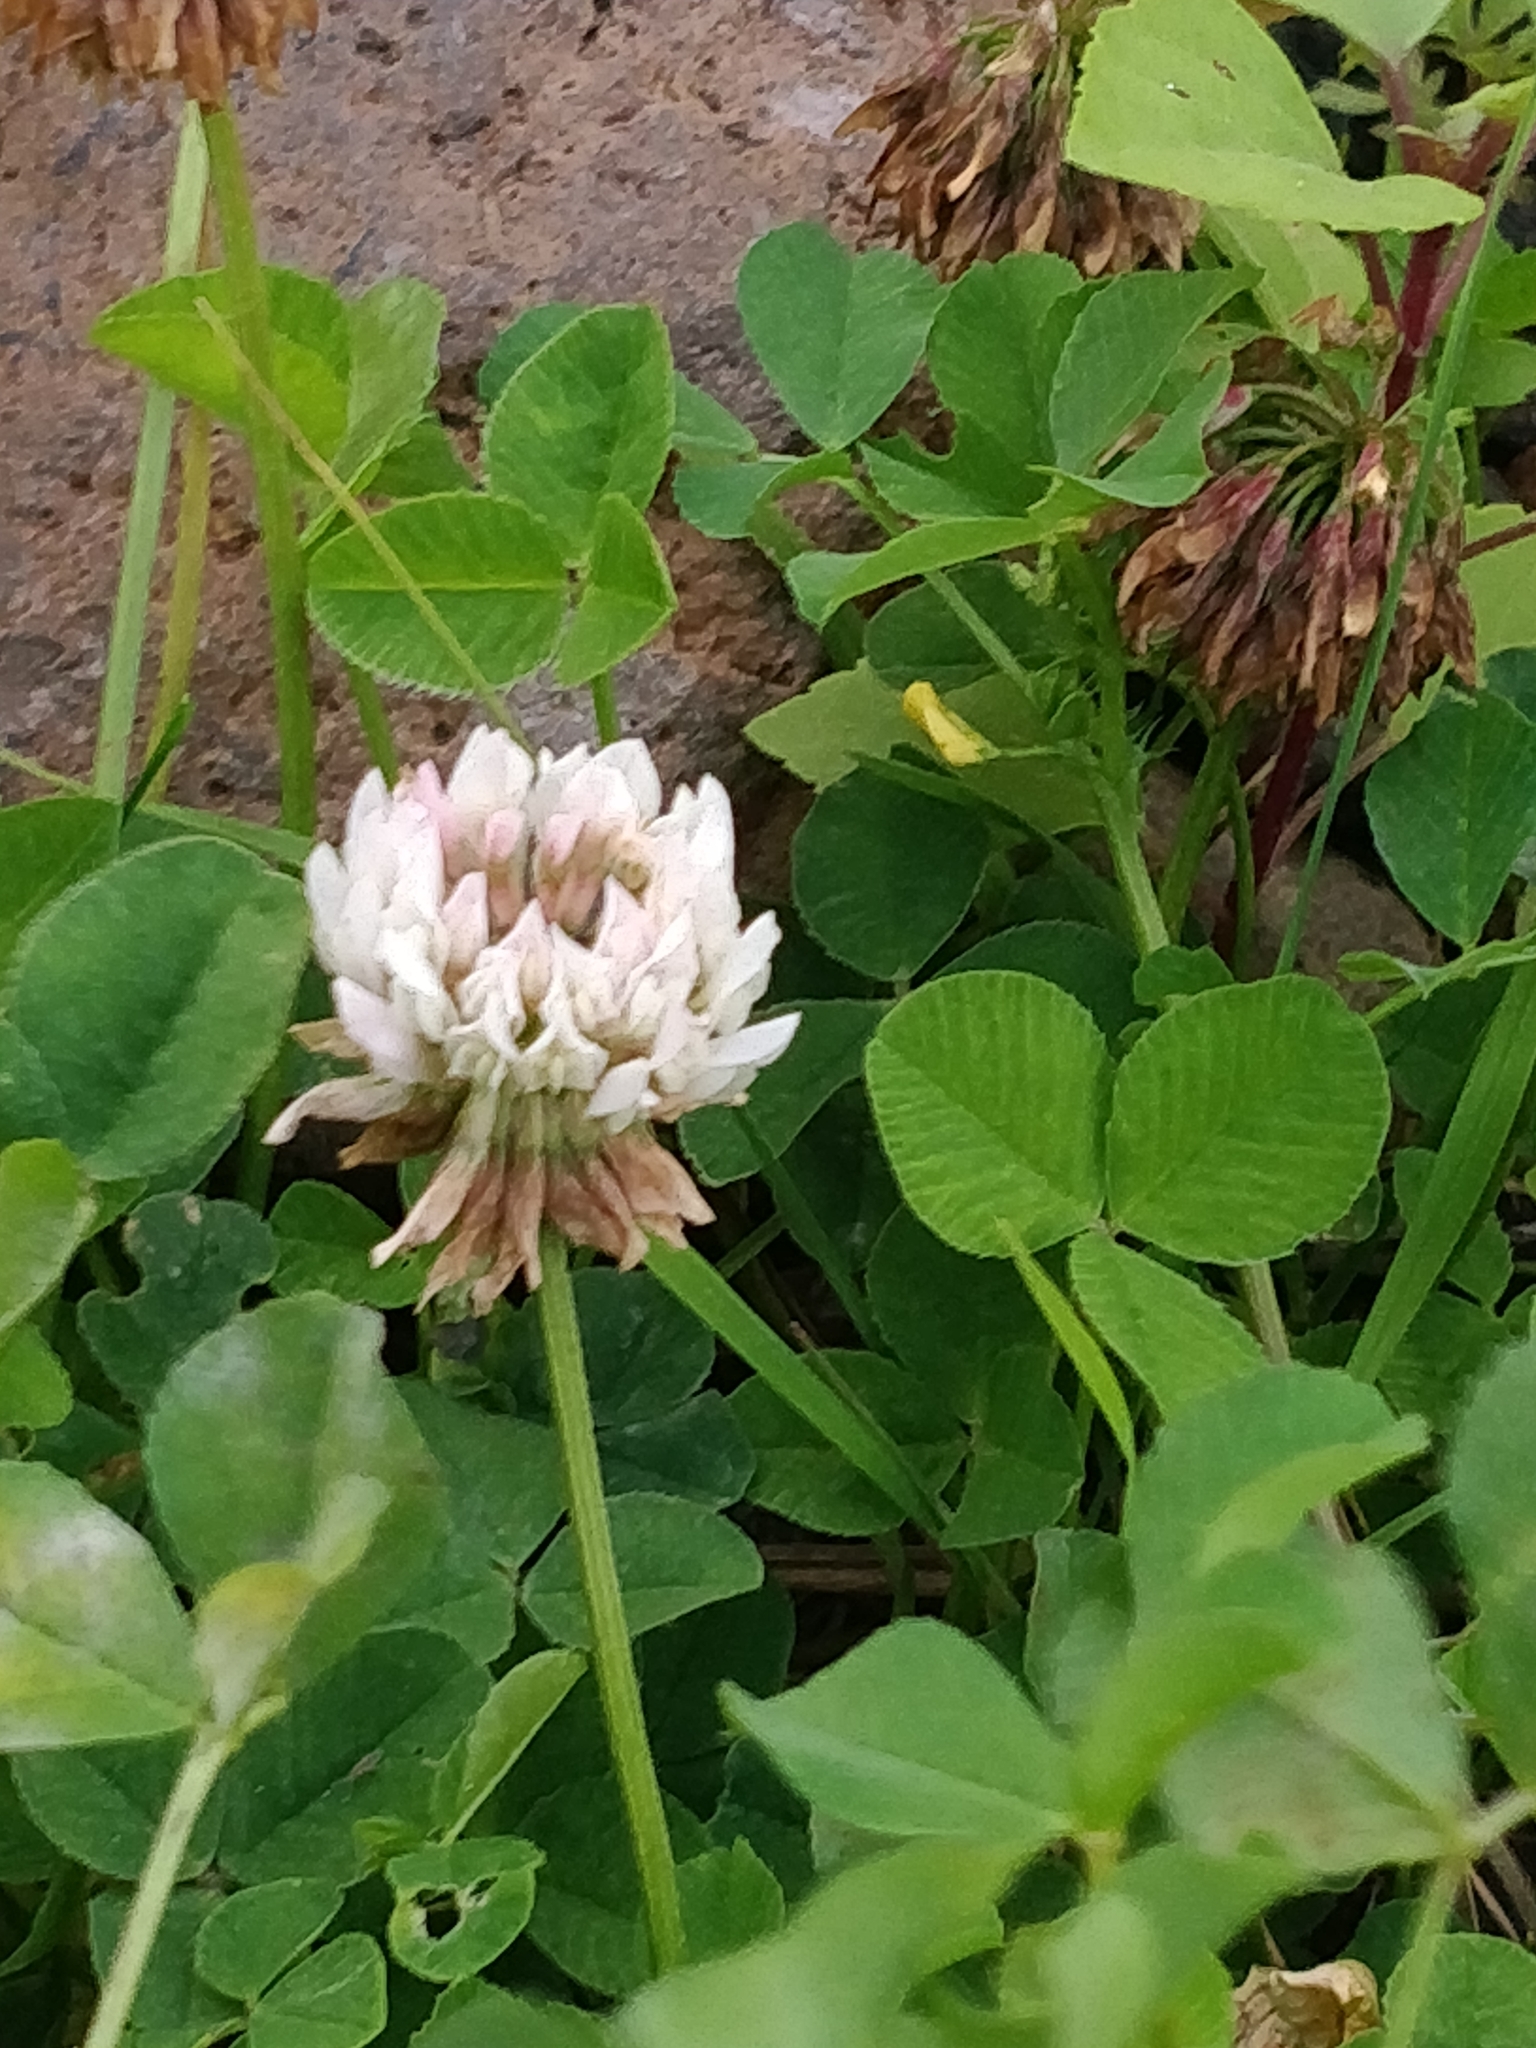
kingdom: Plantae
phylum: Tracheophyta
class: Magnoliopsida
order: Fabales
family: Fabaceae
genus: Trifolium
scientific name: Trifolium repens
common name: White clover
